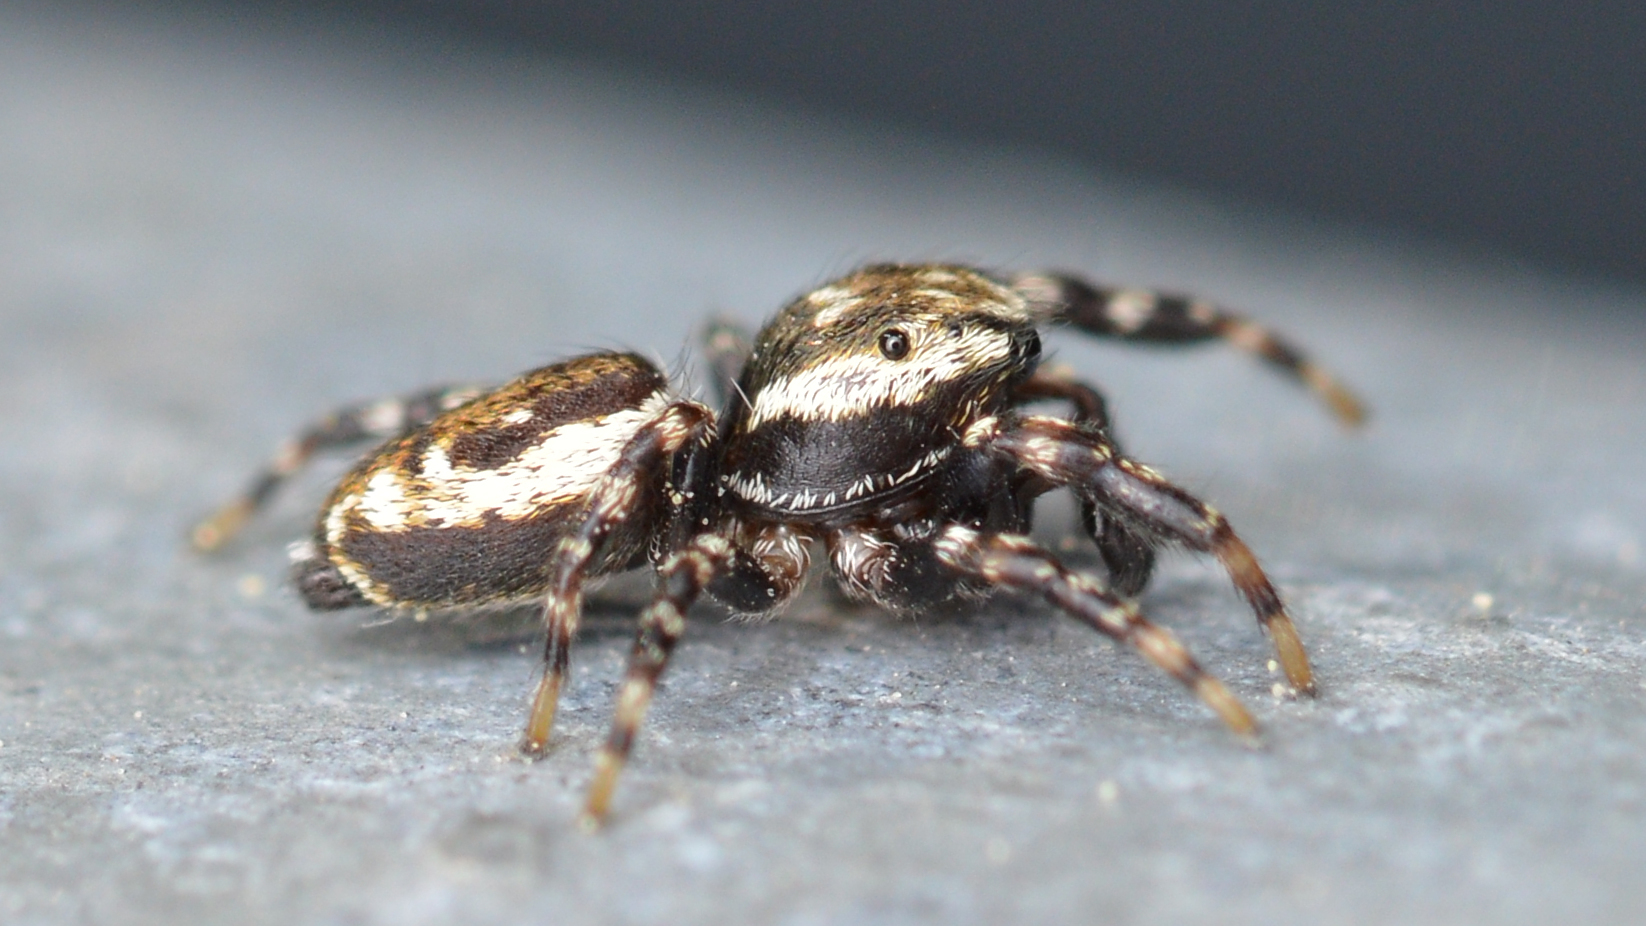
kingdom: Animalia
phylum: Arthropoda
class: Arachnida
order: Araneae
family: Salticidae
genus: Pelegrina
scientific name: Pelegrina galathea
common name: Jumping spiders
